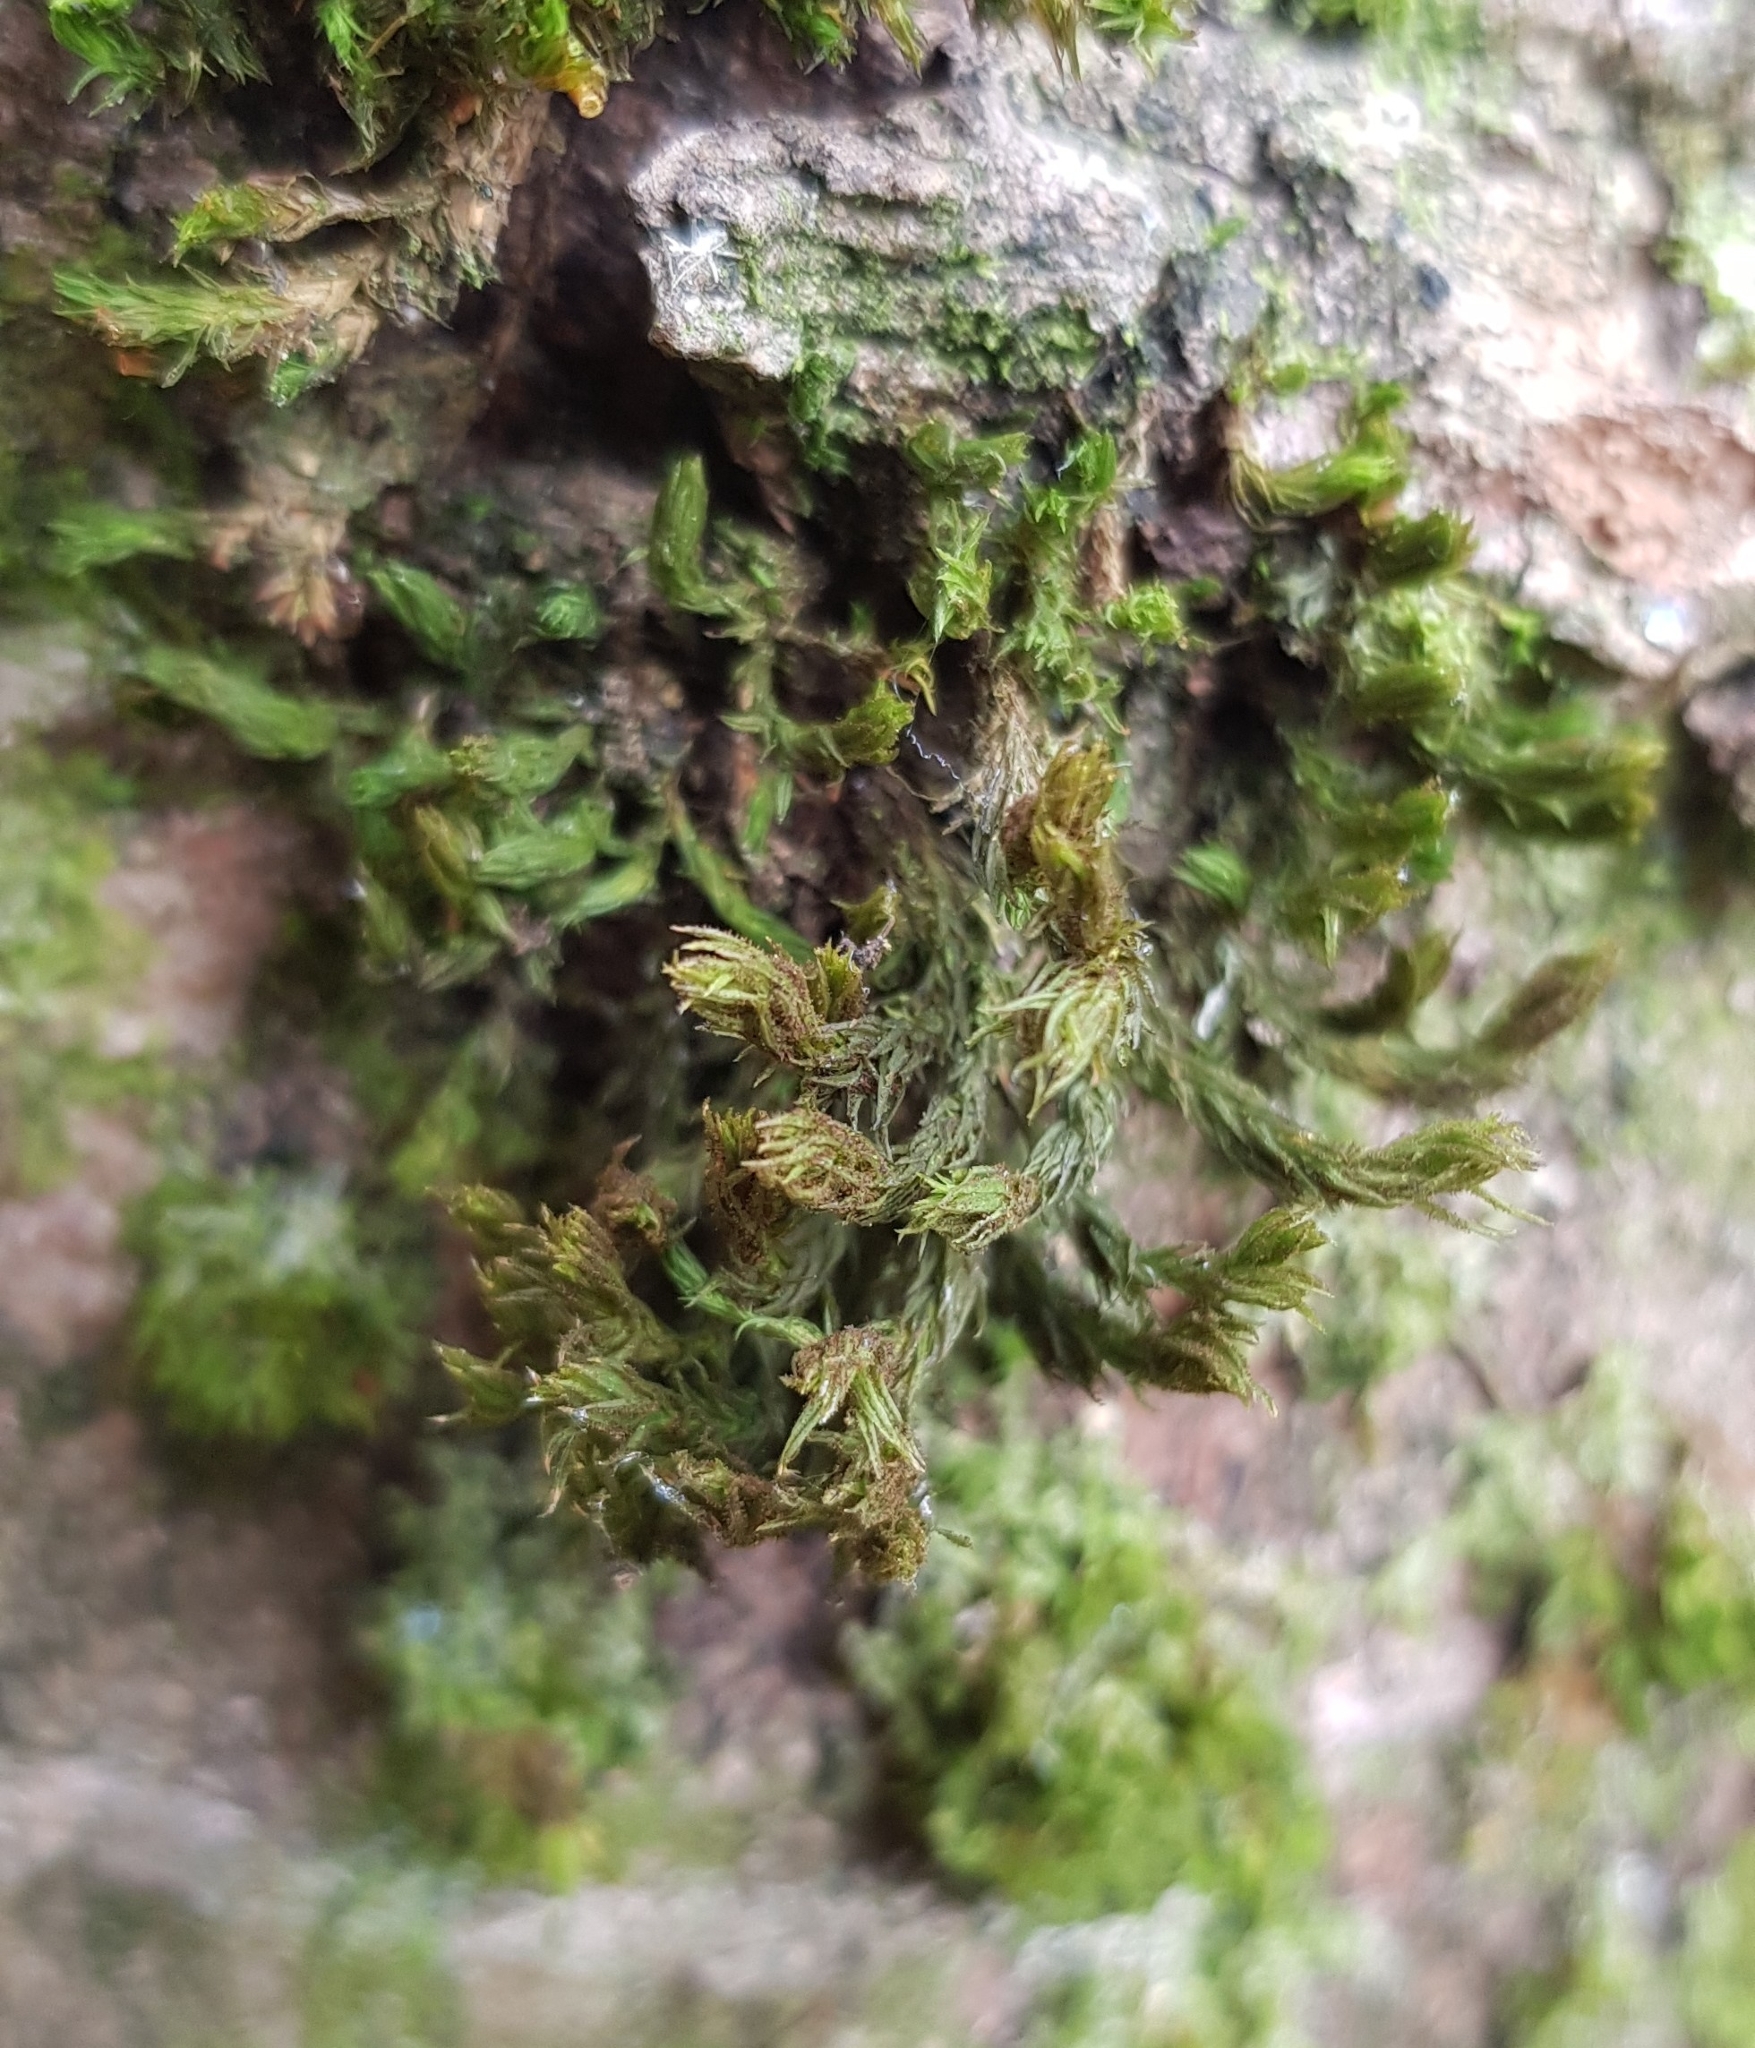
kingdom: Plantae
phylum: Bryophyta
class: Bryopsida
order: Orthotrichales
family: Orthotrichaceae
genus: Pulvigera
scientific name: Pulvigera lyellii
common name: Lyell's bristle-moss
